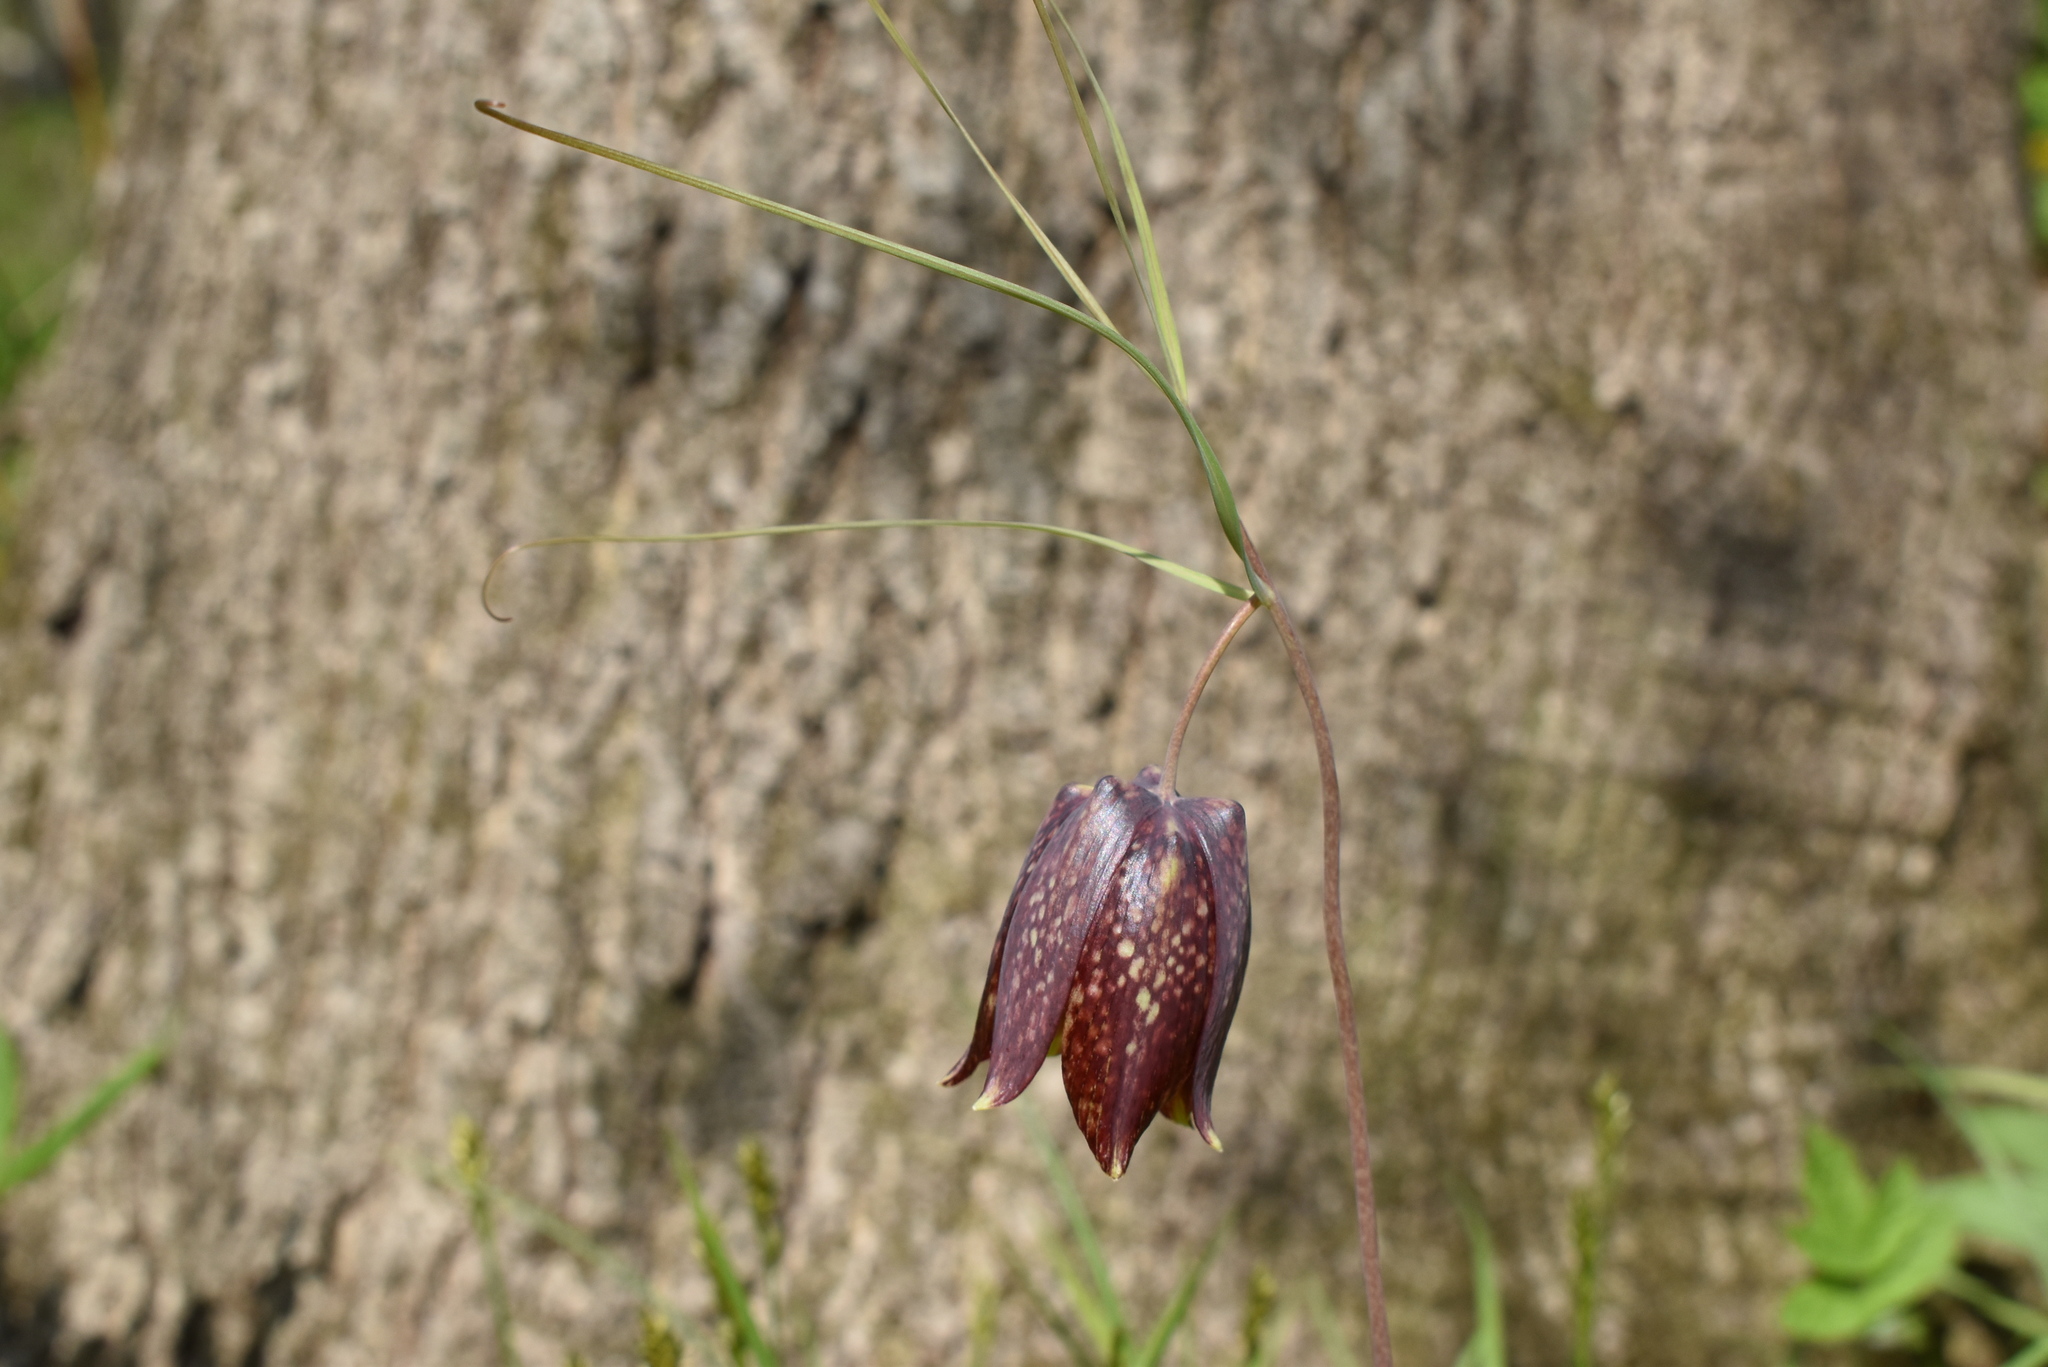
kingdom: Plantae
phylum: Tracheophyta
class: Liliopsida
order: Liliales
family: Liliaceae
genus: Fritillaria
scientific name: Fritillaria usuriensis
